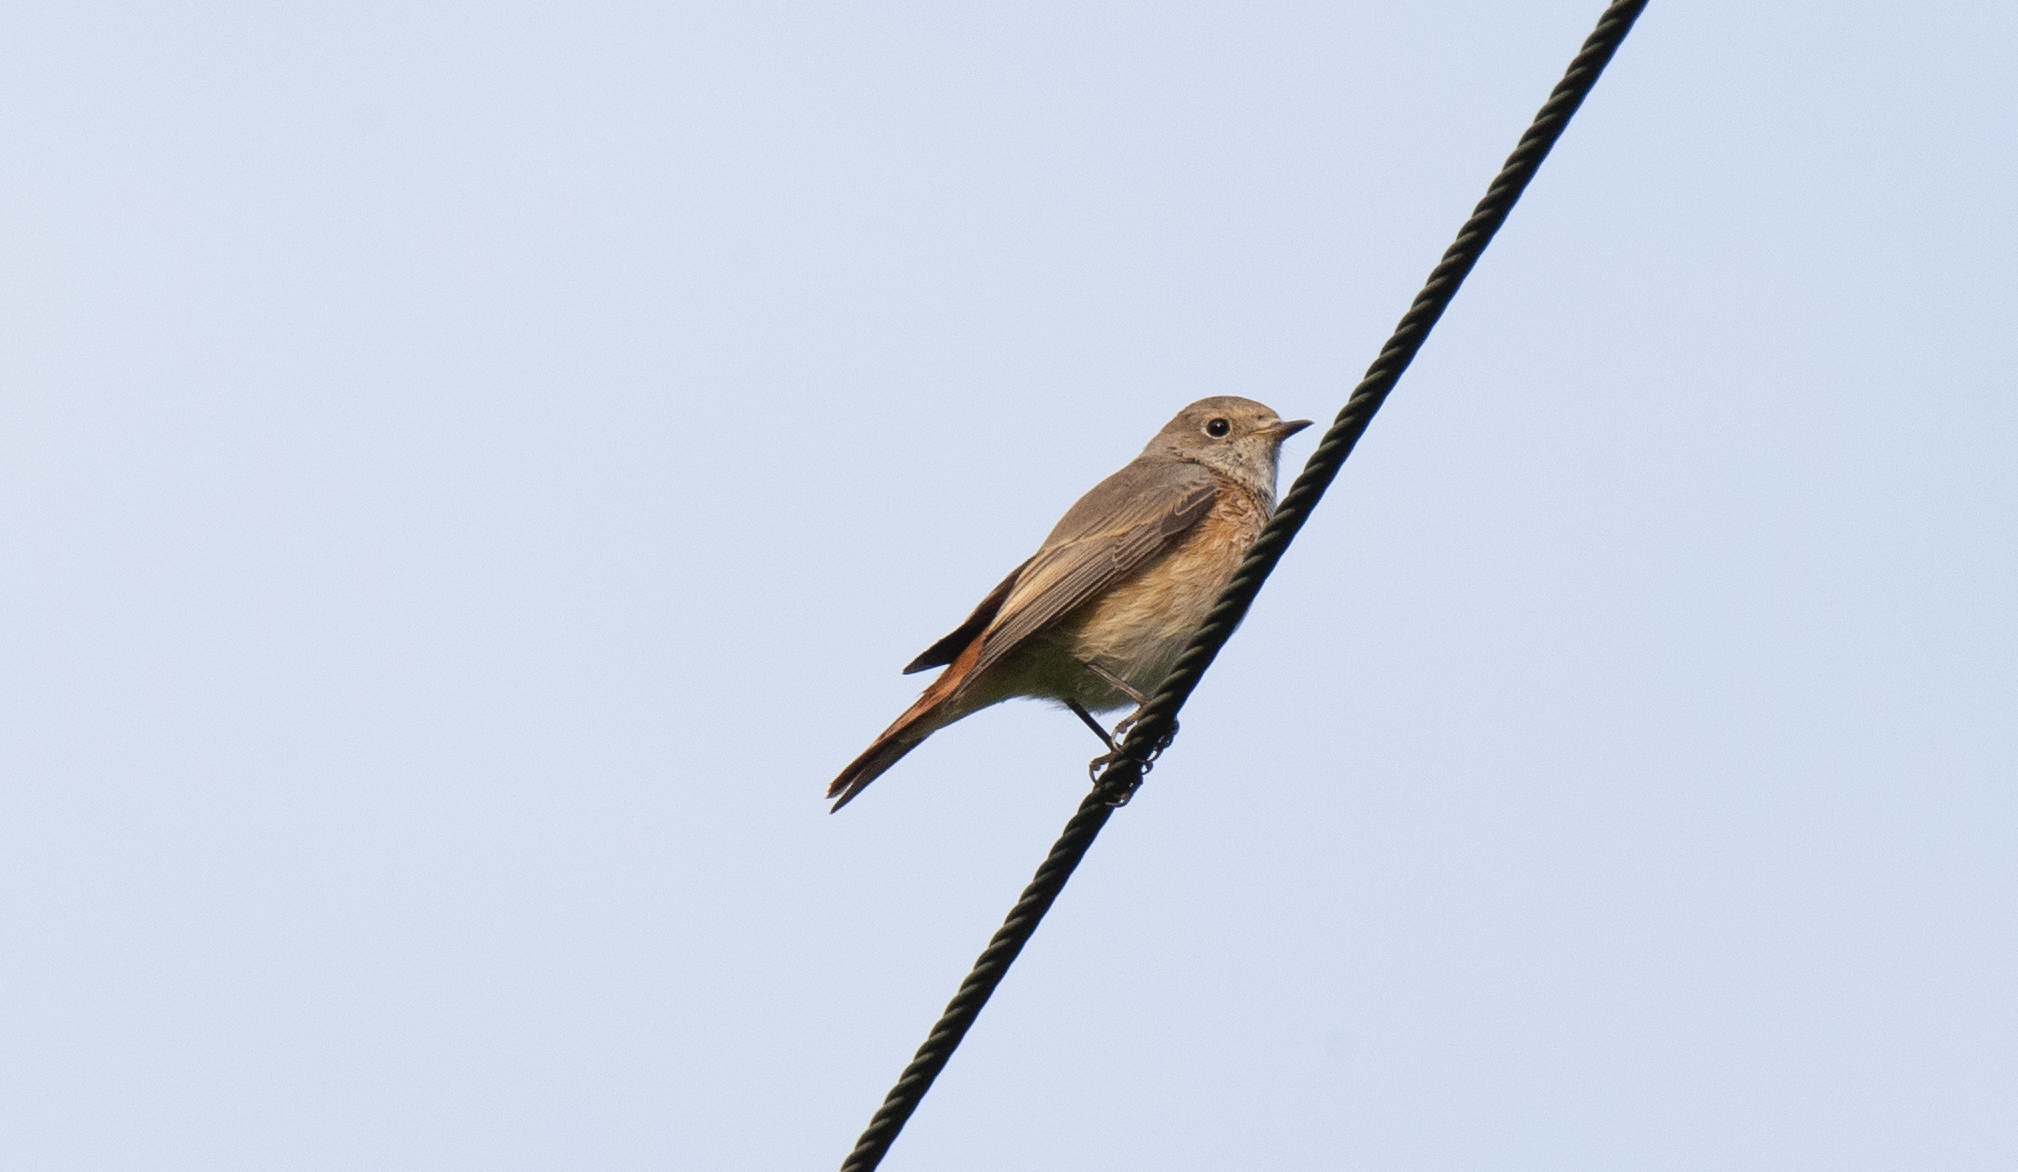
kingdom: Animalia
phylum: Chordata
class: Aves
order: Passeriformes
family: Muscicapidae
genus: Phoenicurus
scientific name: Phoenicurus phoenicurus
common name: Common redstart
